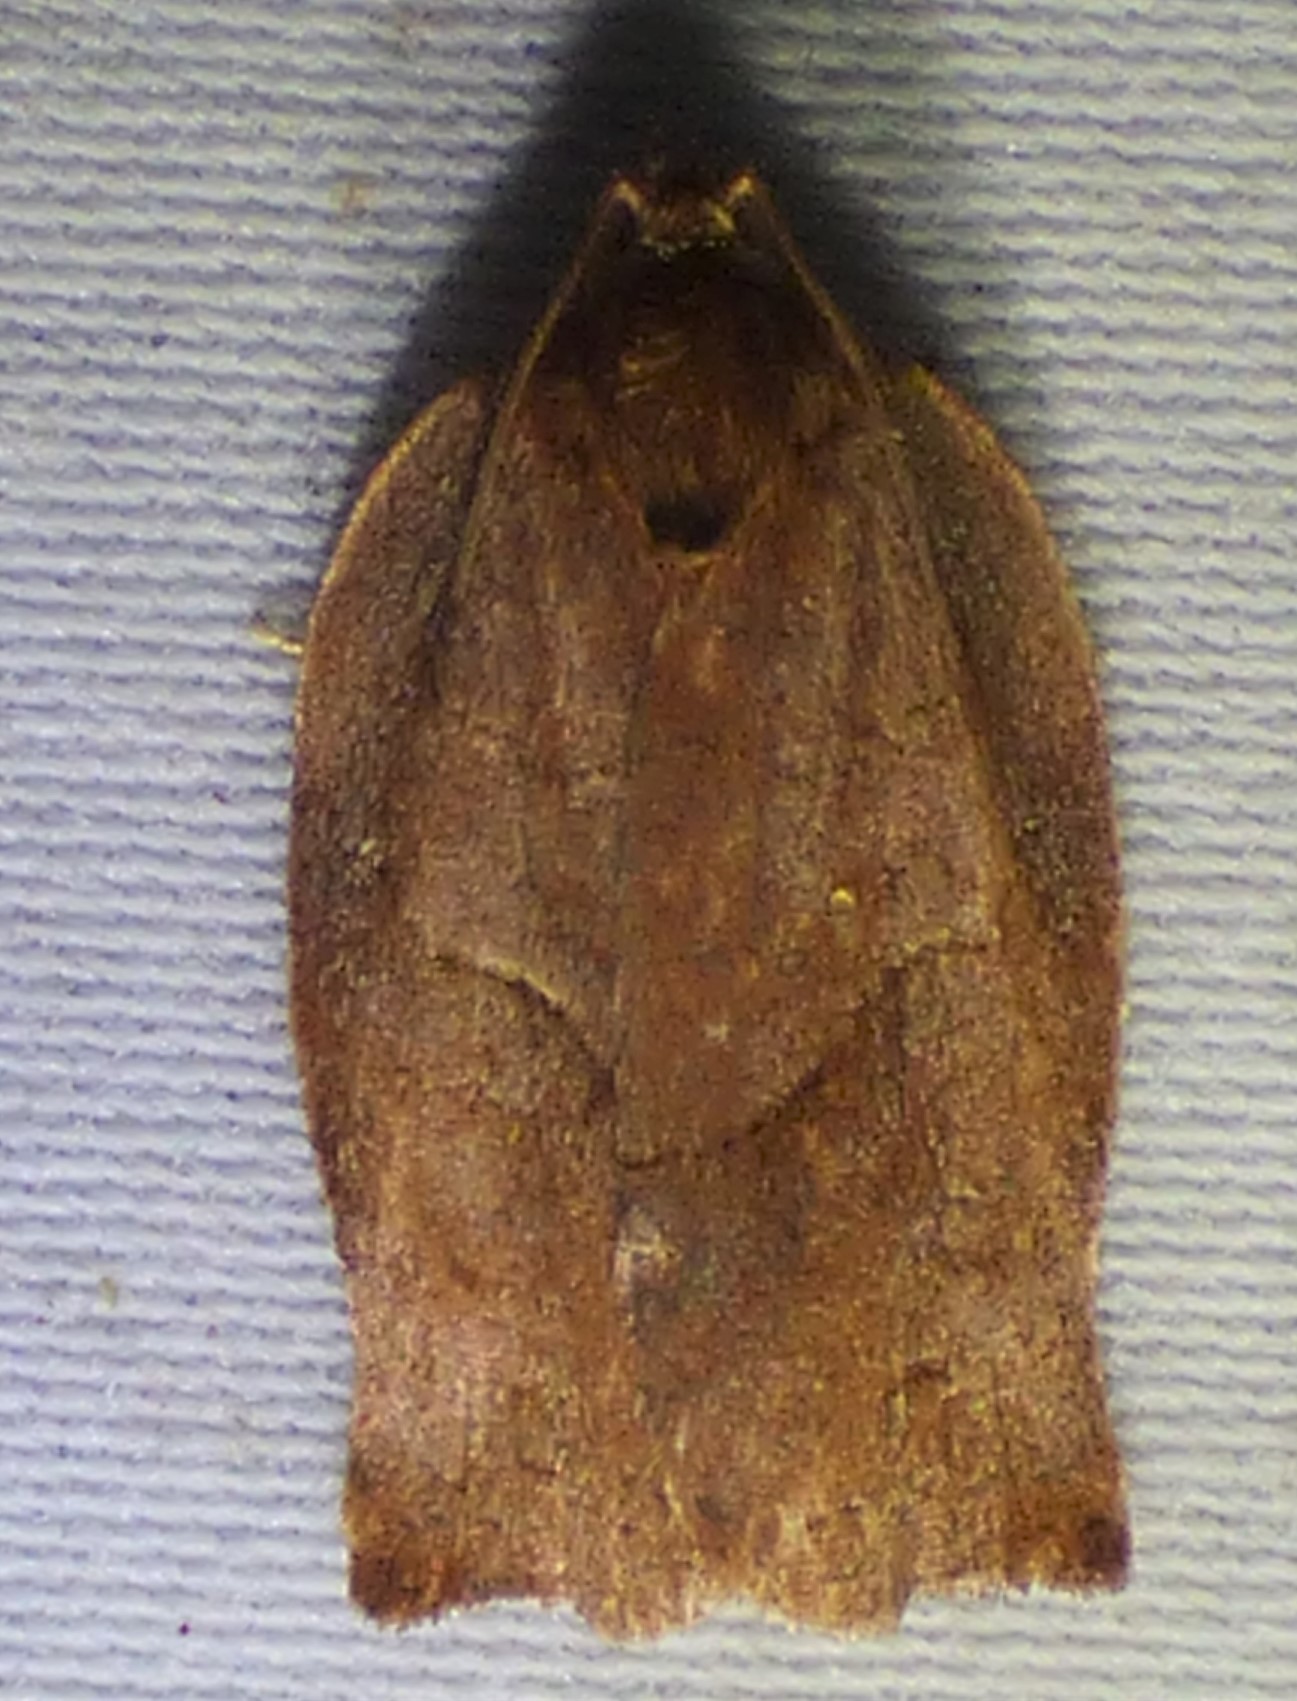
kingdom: Animalia
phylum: Arthropoda
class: Insecta
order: Lepidoptera
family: Tortricidae
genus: Choristoneura
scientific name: Choristoneura rosaceana
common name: Oblique-banded leafroller moth
